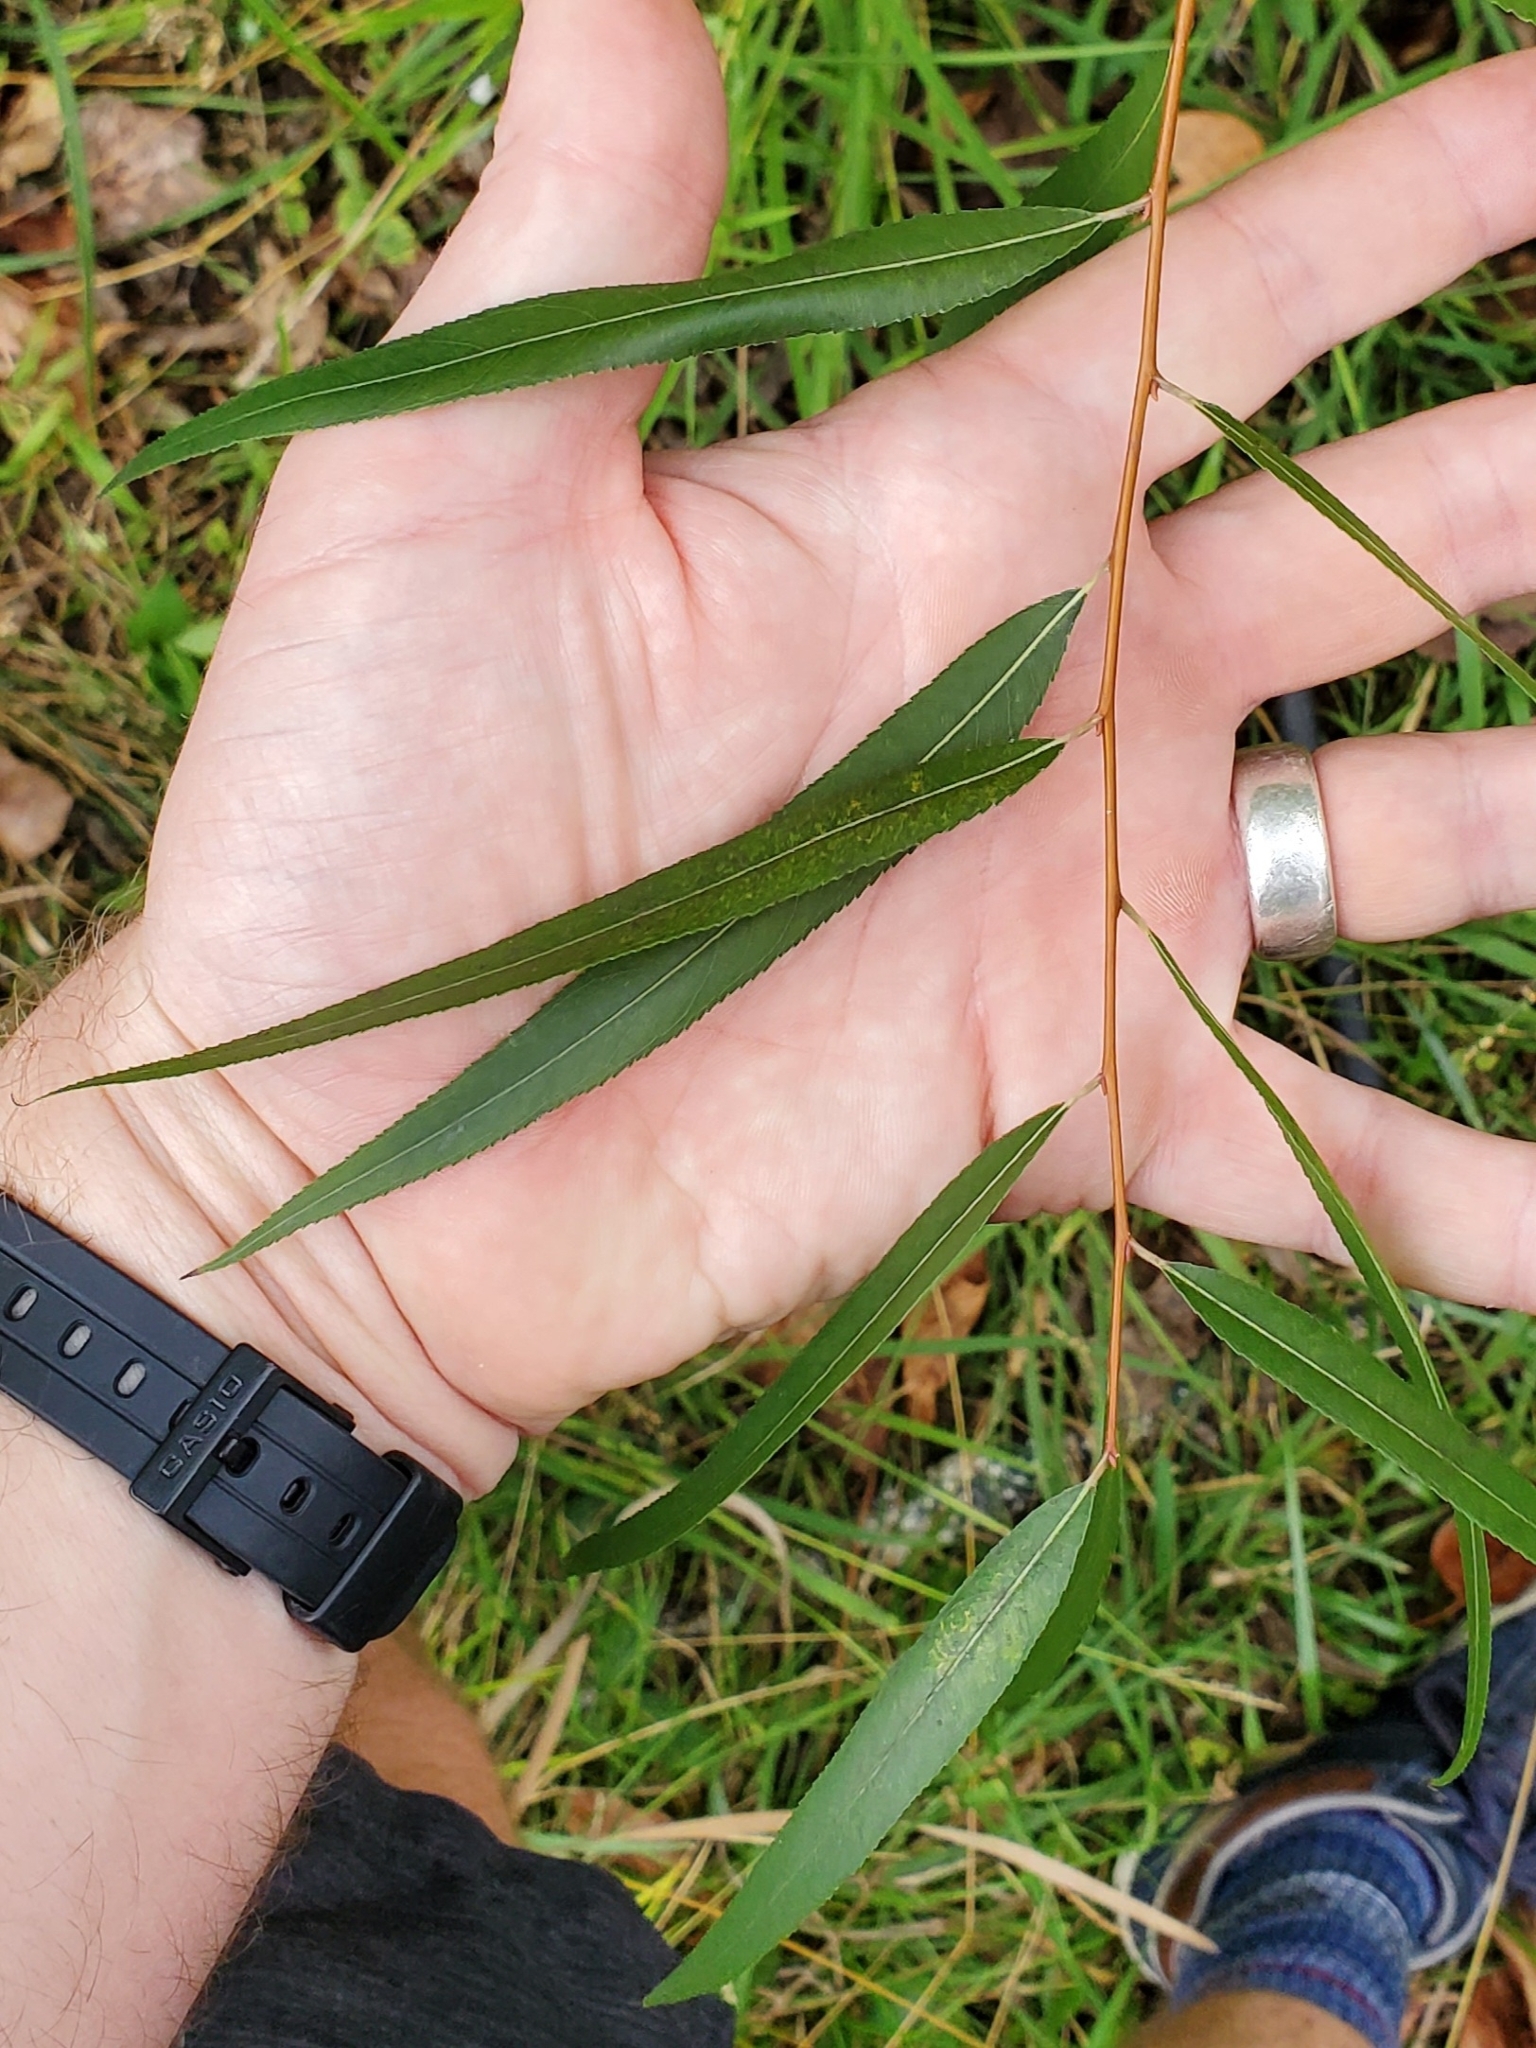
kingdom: Plantae
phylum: Tracheophyta
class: Magnoliopsida
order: Malpighiales
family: Salicaceae
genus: Salix
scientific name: Salix nigra
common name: Black willow
